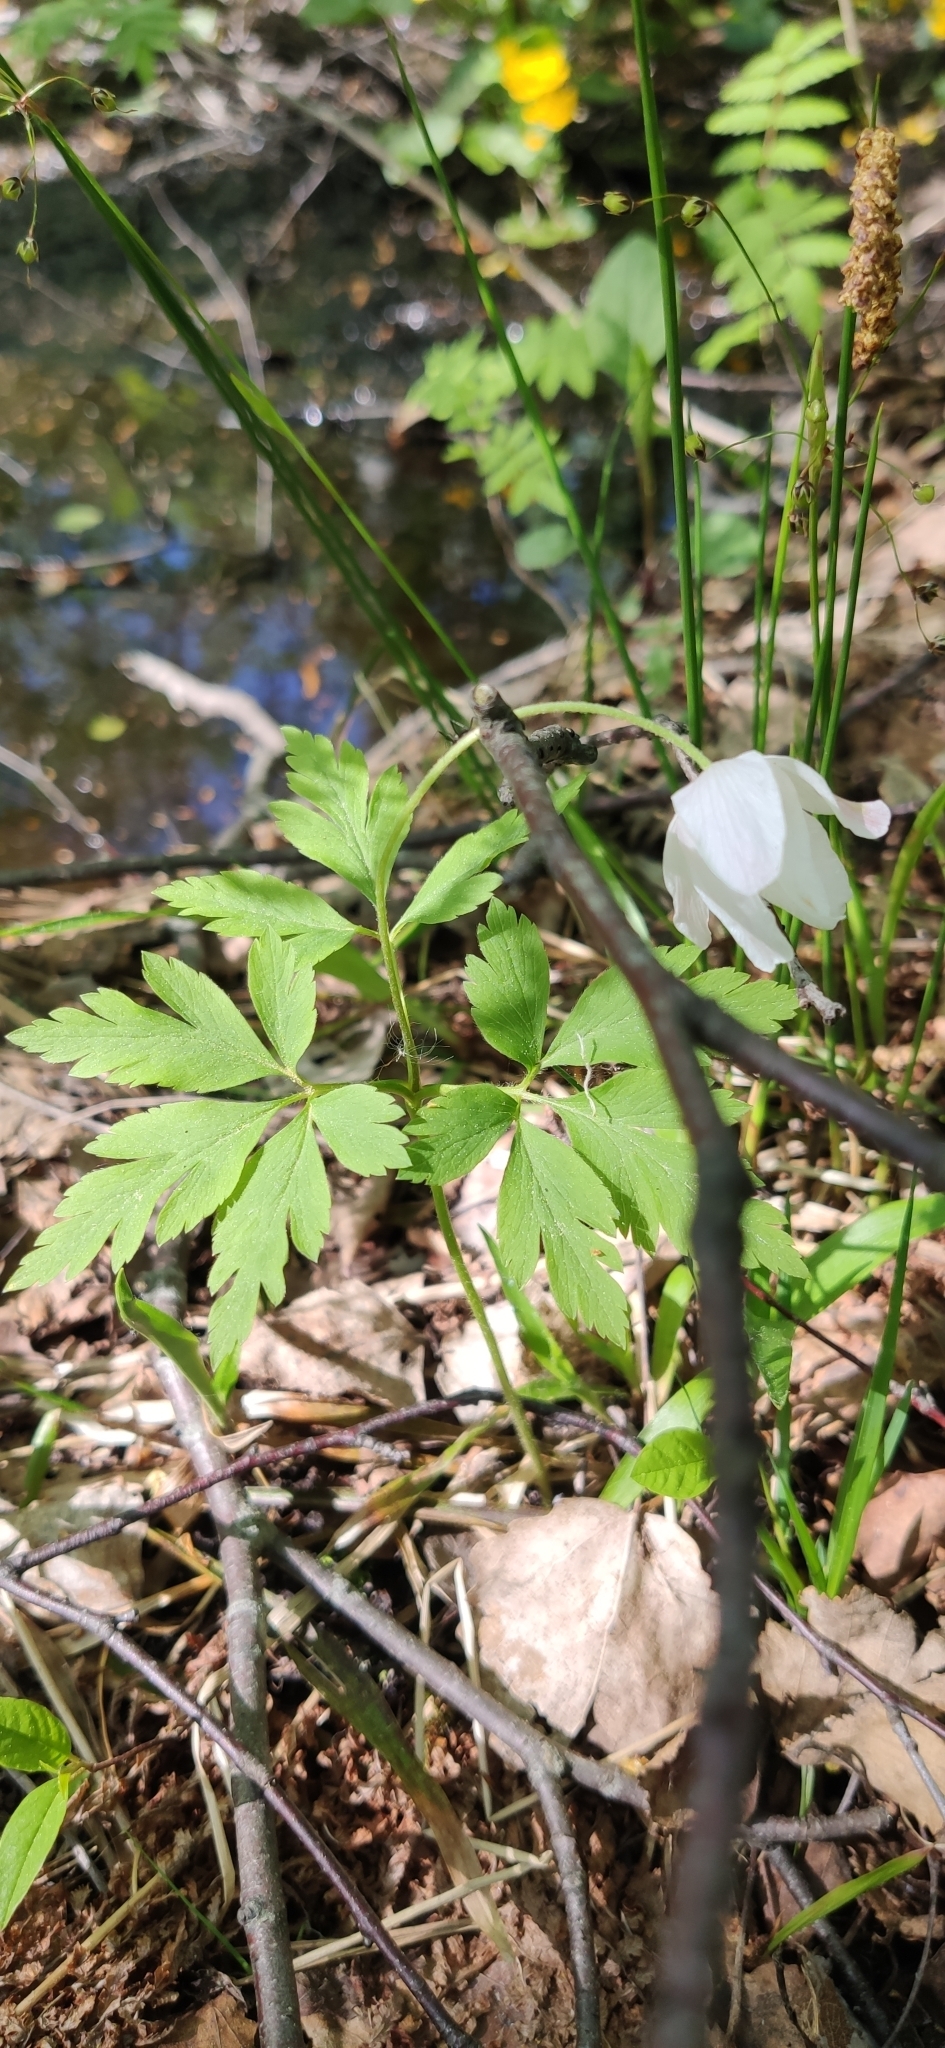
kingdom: Plantae
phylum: Tracheophyta
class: Magnoliopsida
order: Ranunculales
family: Ranunculaceae
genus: Anemone
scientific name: Anemone nemorosa
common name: Wood anemone
